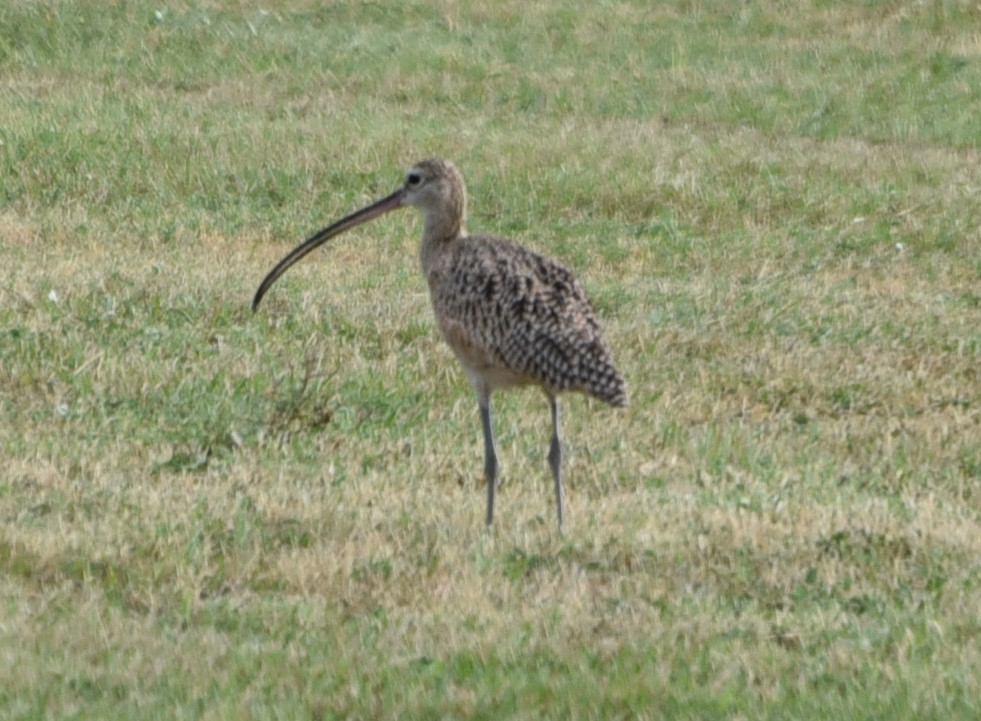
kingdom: Animalia
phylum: Chordata
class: Aves
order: Charadriiformes
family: Scolopacidae
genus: Numenius
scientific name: Numenius americanus
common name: Long-billed curlew
